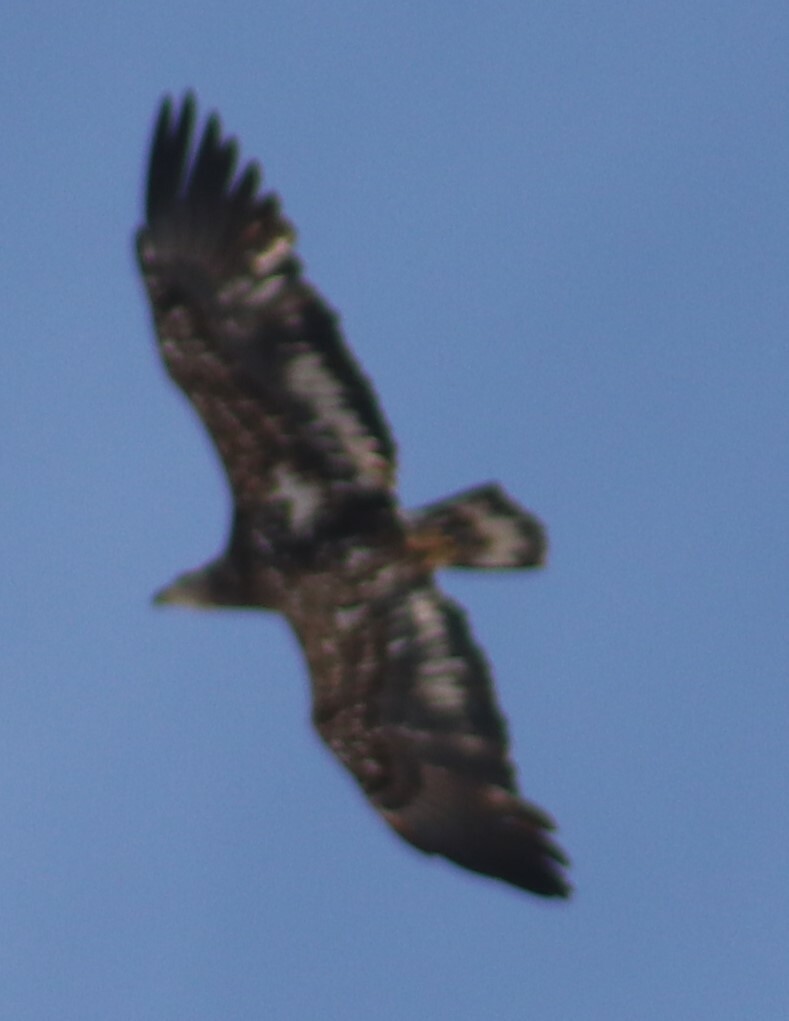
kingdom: Animalia
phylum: Chordata
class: Aves
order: Accipitriformes
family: Accipitridae
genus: Haliaeetus
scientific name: Haliaeetus leucocephalus
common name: Bald eagle
